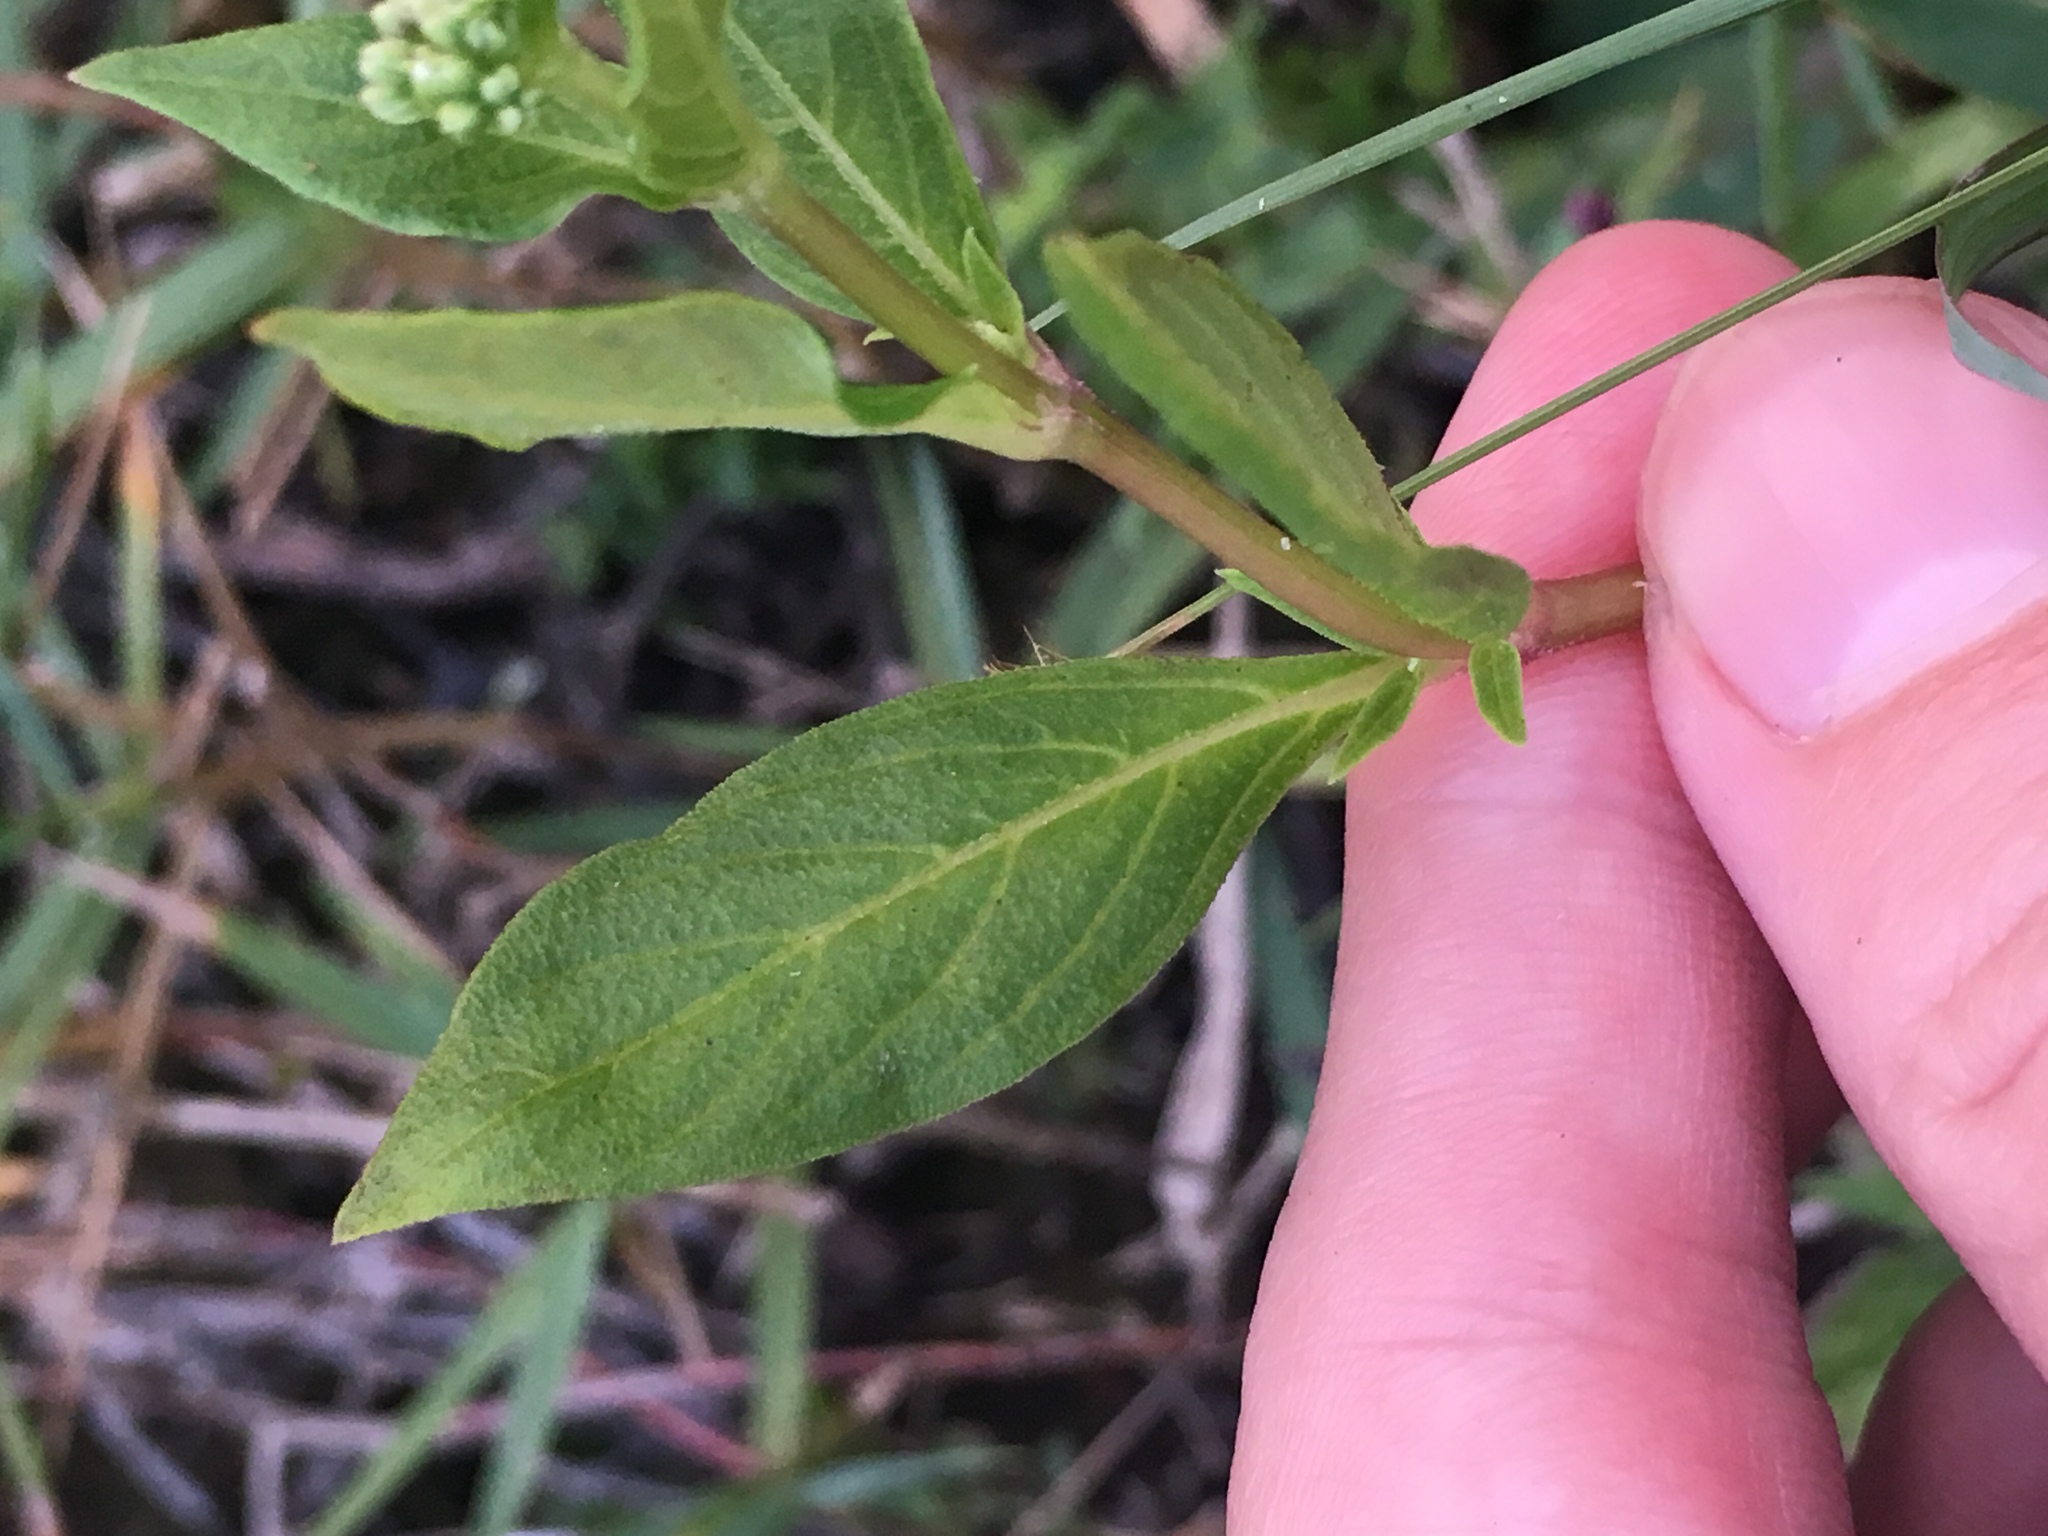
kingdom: Plantae
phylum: Tracheophyta
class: Magnoliopsida
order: Gentianales
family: Loganiaceae
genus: Mitreola
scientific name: Mitreola petiolata
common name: Lax hornpod
